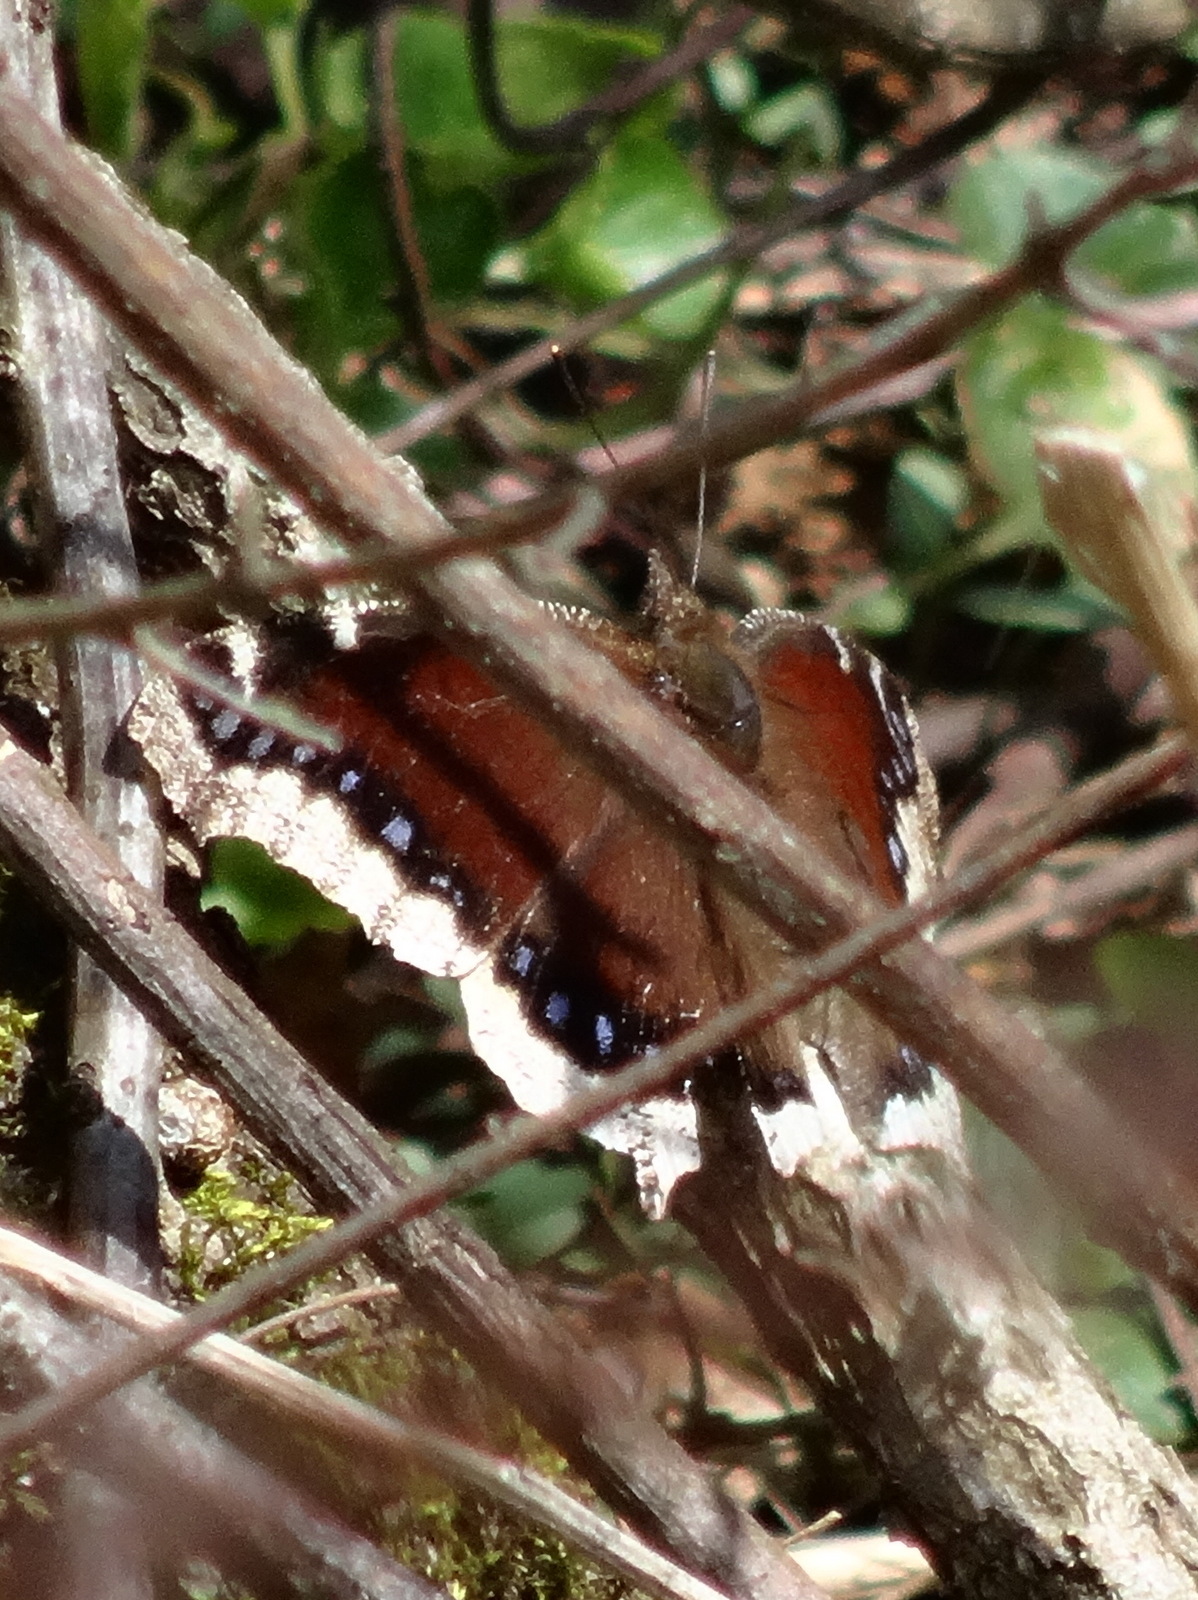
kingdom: Animalia
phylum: Arthropoda
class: Insecta
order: Lepidoptera
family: Nymphalidae
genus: Nymphalis
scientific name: Nymphalis antiopa
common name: Camberwell beauty
